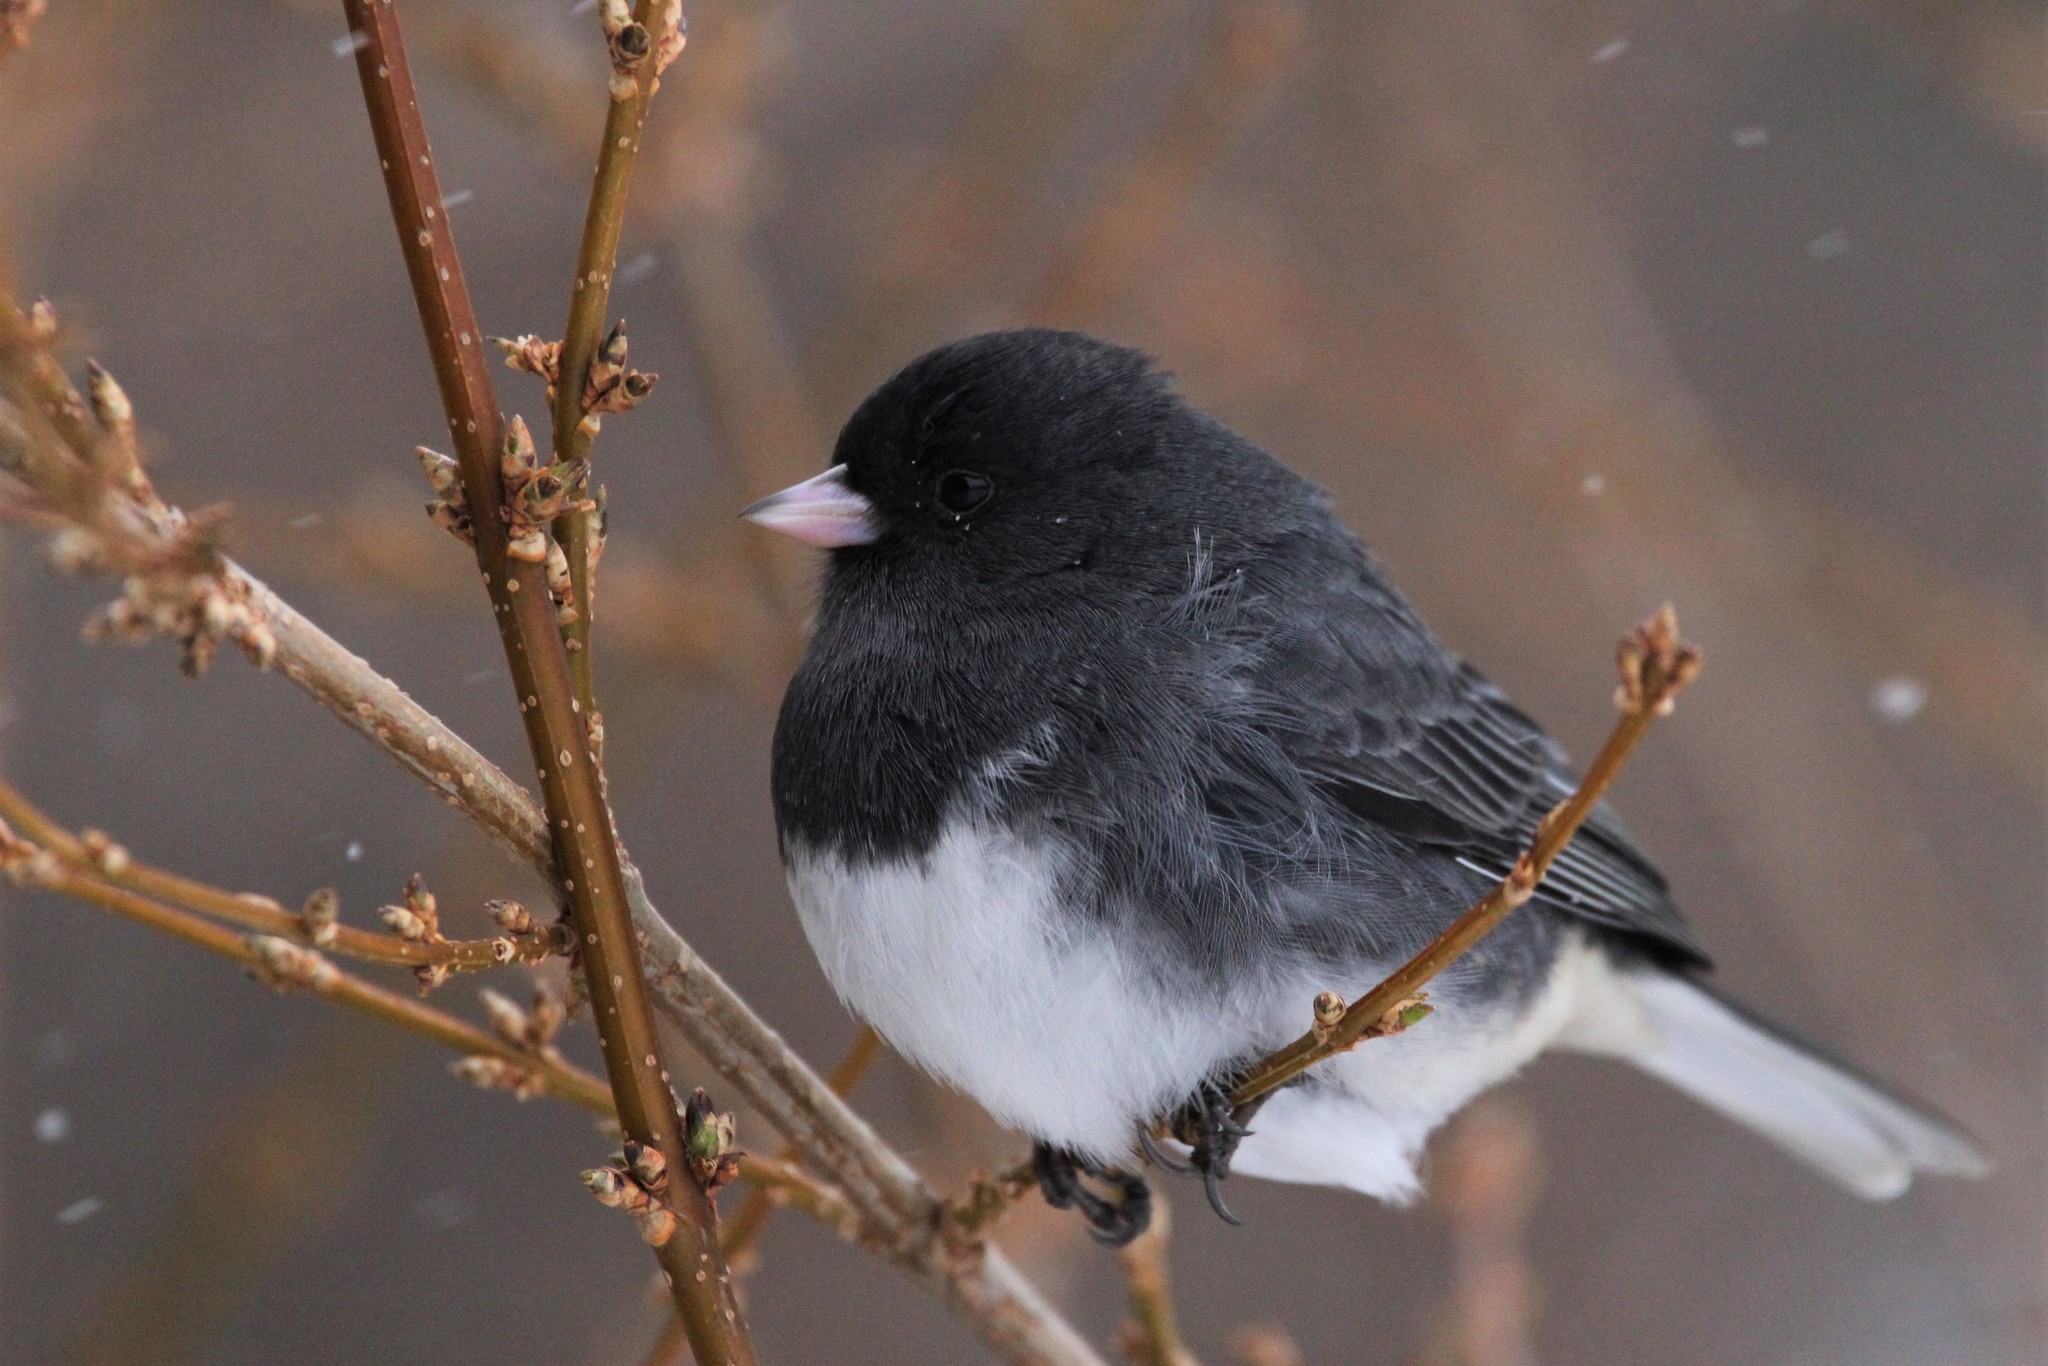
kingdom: Animalia
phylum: Chordata
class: Aves
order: Passeriformes
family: Passerellidae
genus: Junco
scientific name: Junco hyemalis
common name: Dark-eyed junco
